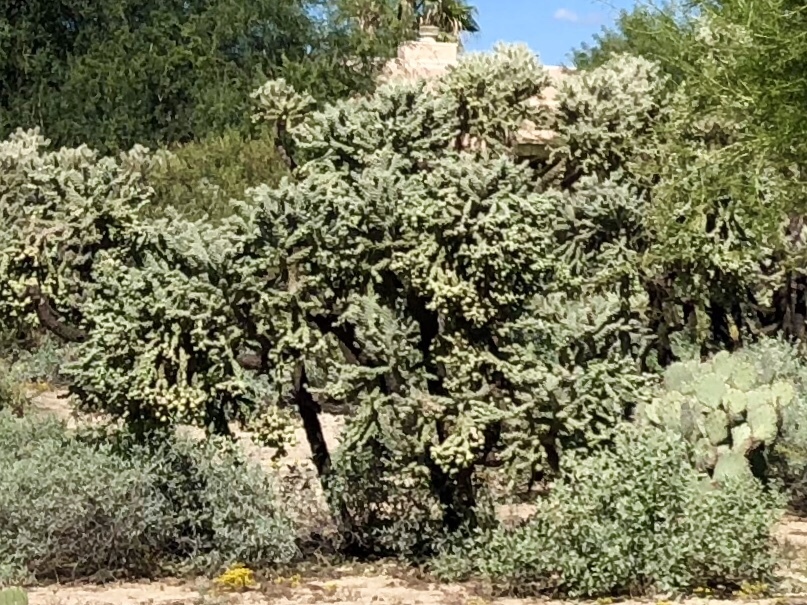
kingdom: Plantae
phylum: Tracheophyta
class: Magnoliopsida
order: Caryophyllales
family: Cactaceae
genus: Cylindropuntia
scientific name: Cylindropuntia fulgida
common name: Jumping cholla
